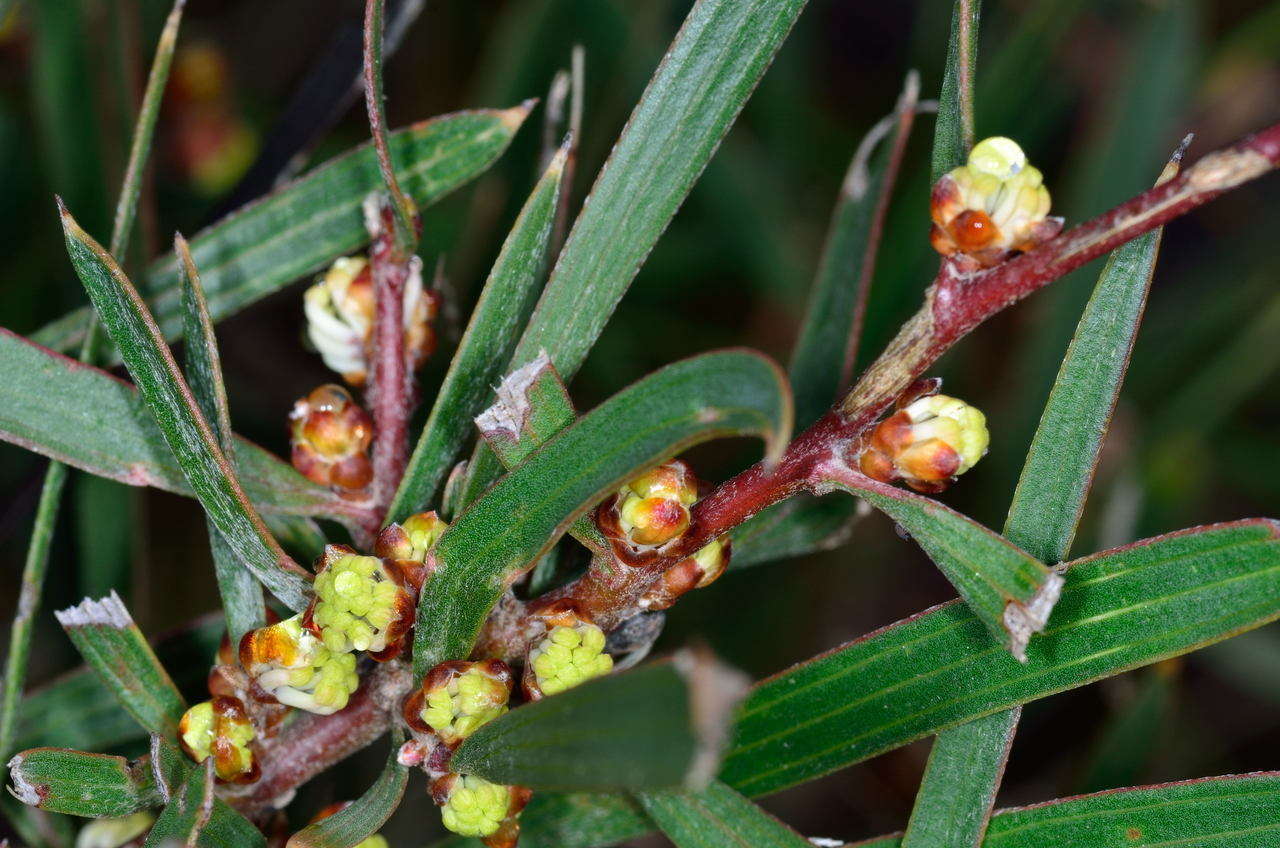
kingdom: Plantae
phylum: Tracheophyta
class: Magnoliopsida
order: Proteales
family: Proteaceae
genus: Hakea
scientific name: Hakea ulicina
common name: Furze hakea
